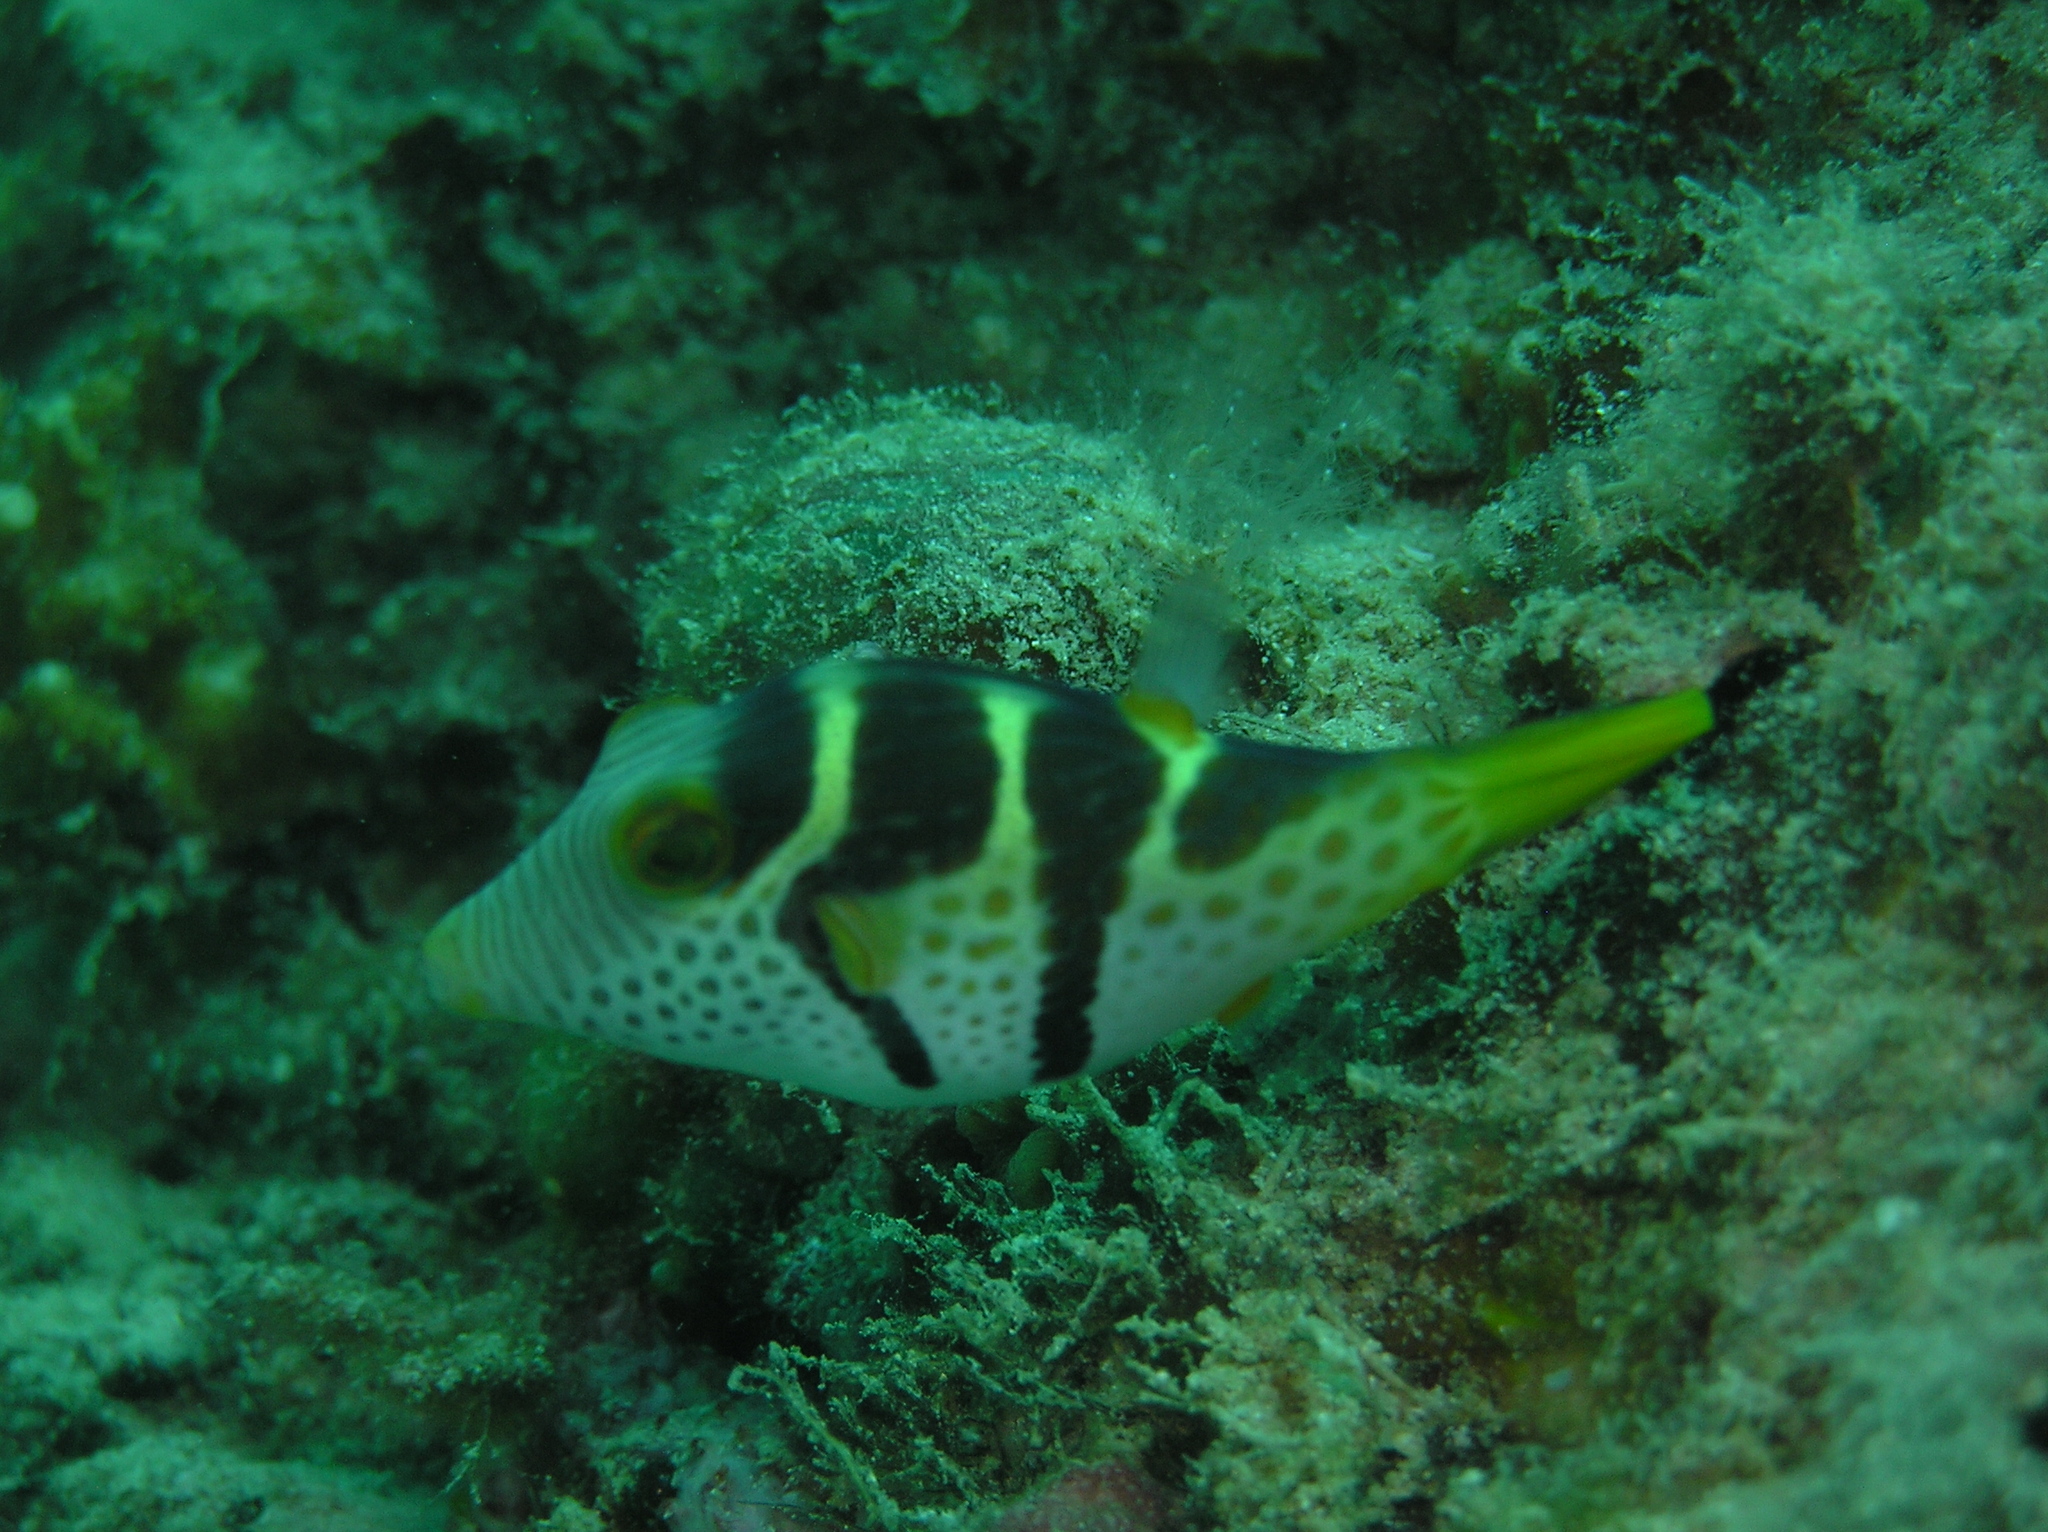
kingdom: Animalia
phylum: Chordata
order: Tetraodontiformes
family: Tetraodontidae
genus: Canthigaster
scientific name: Canthigaster valentini
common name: Banded toby
